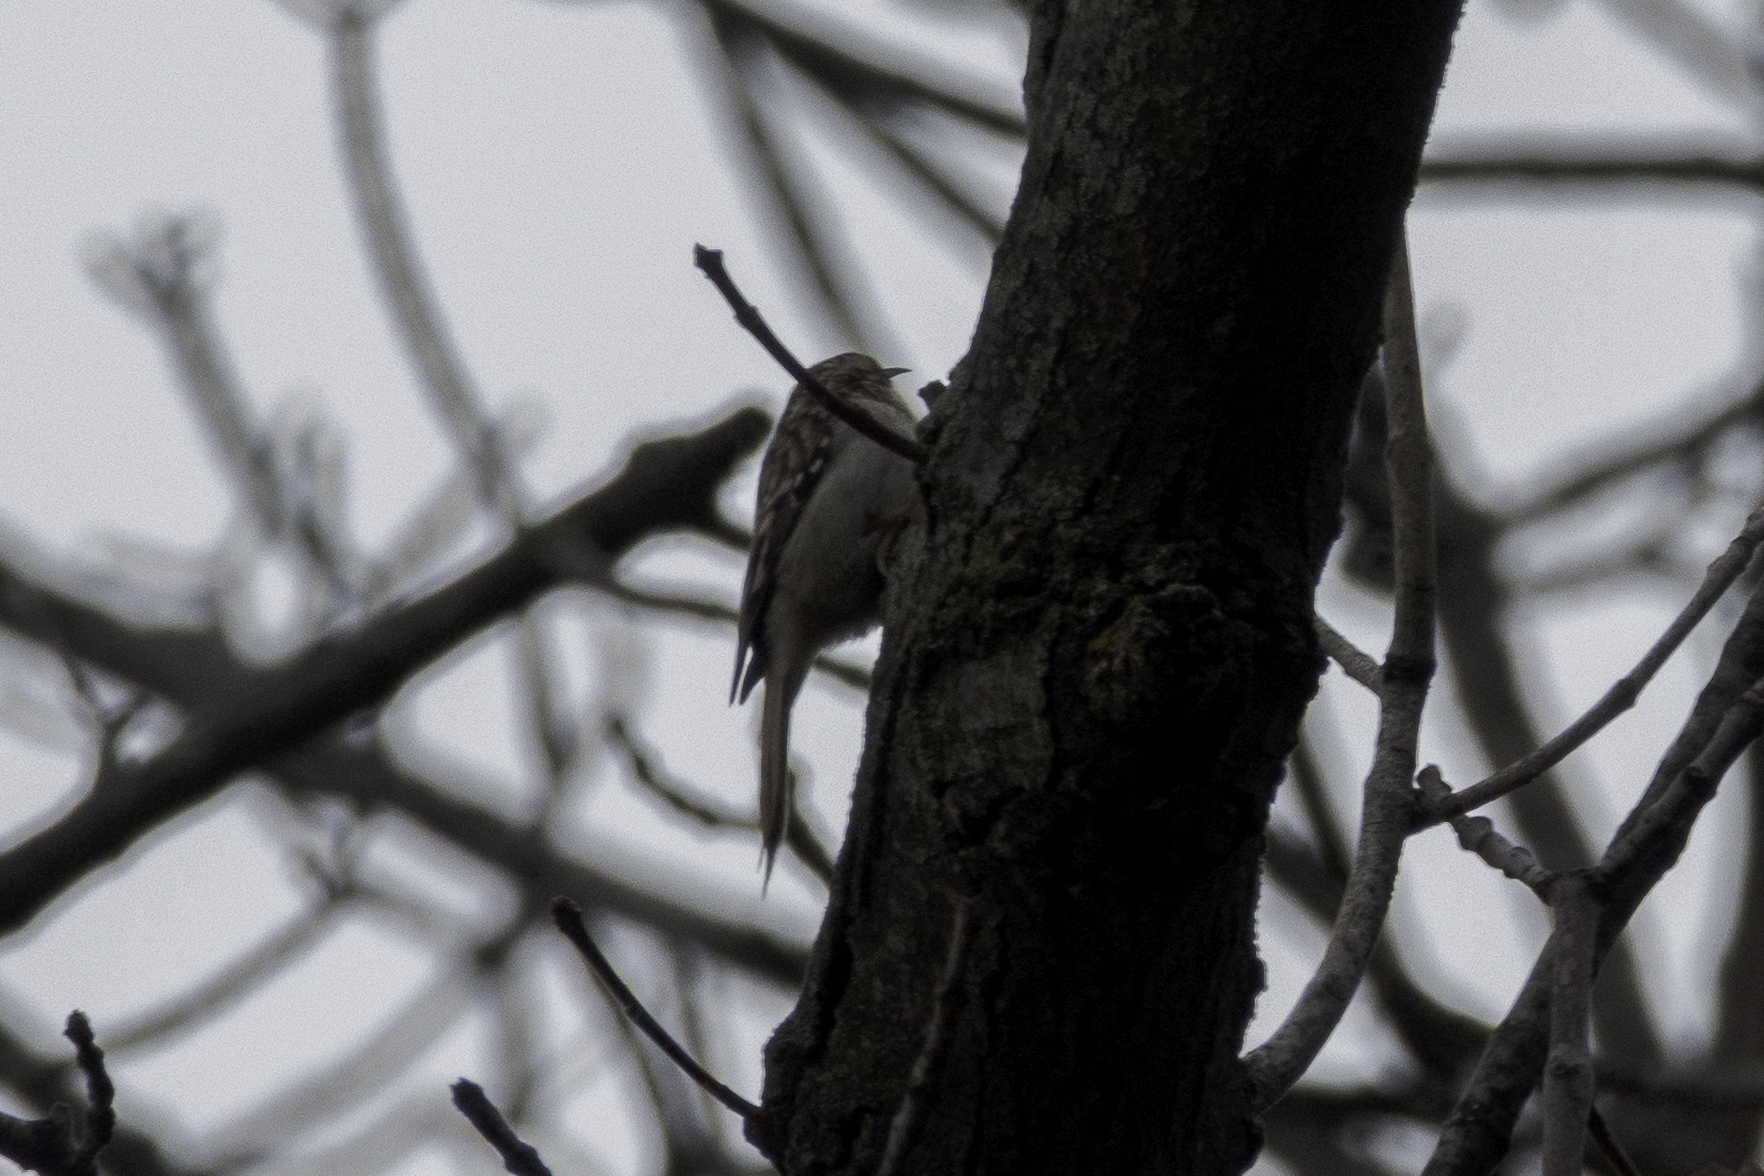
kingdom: Animalia
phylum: Chordata
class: Aves
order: Passeriformes
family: Certhiidae
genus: Certhia
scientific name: Certhia americana
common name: Brown creeper
